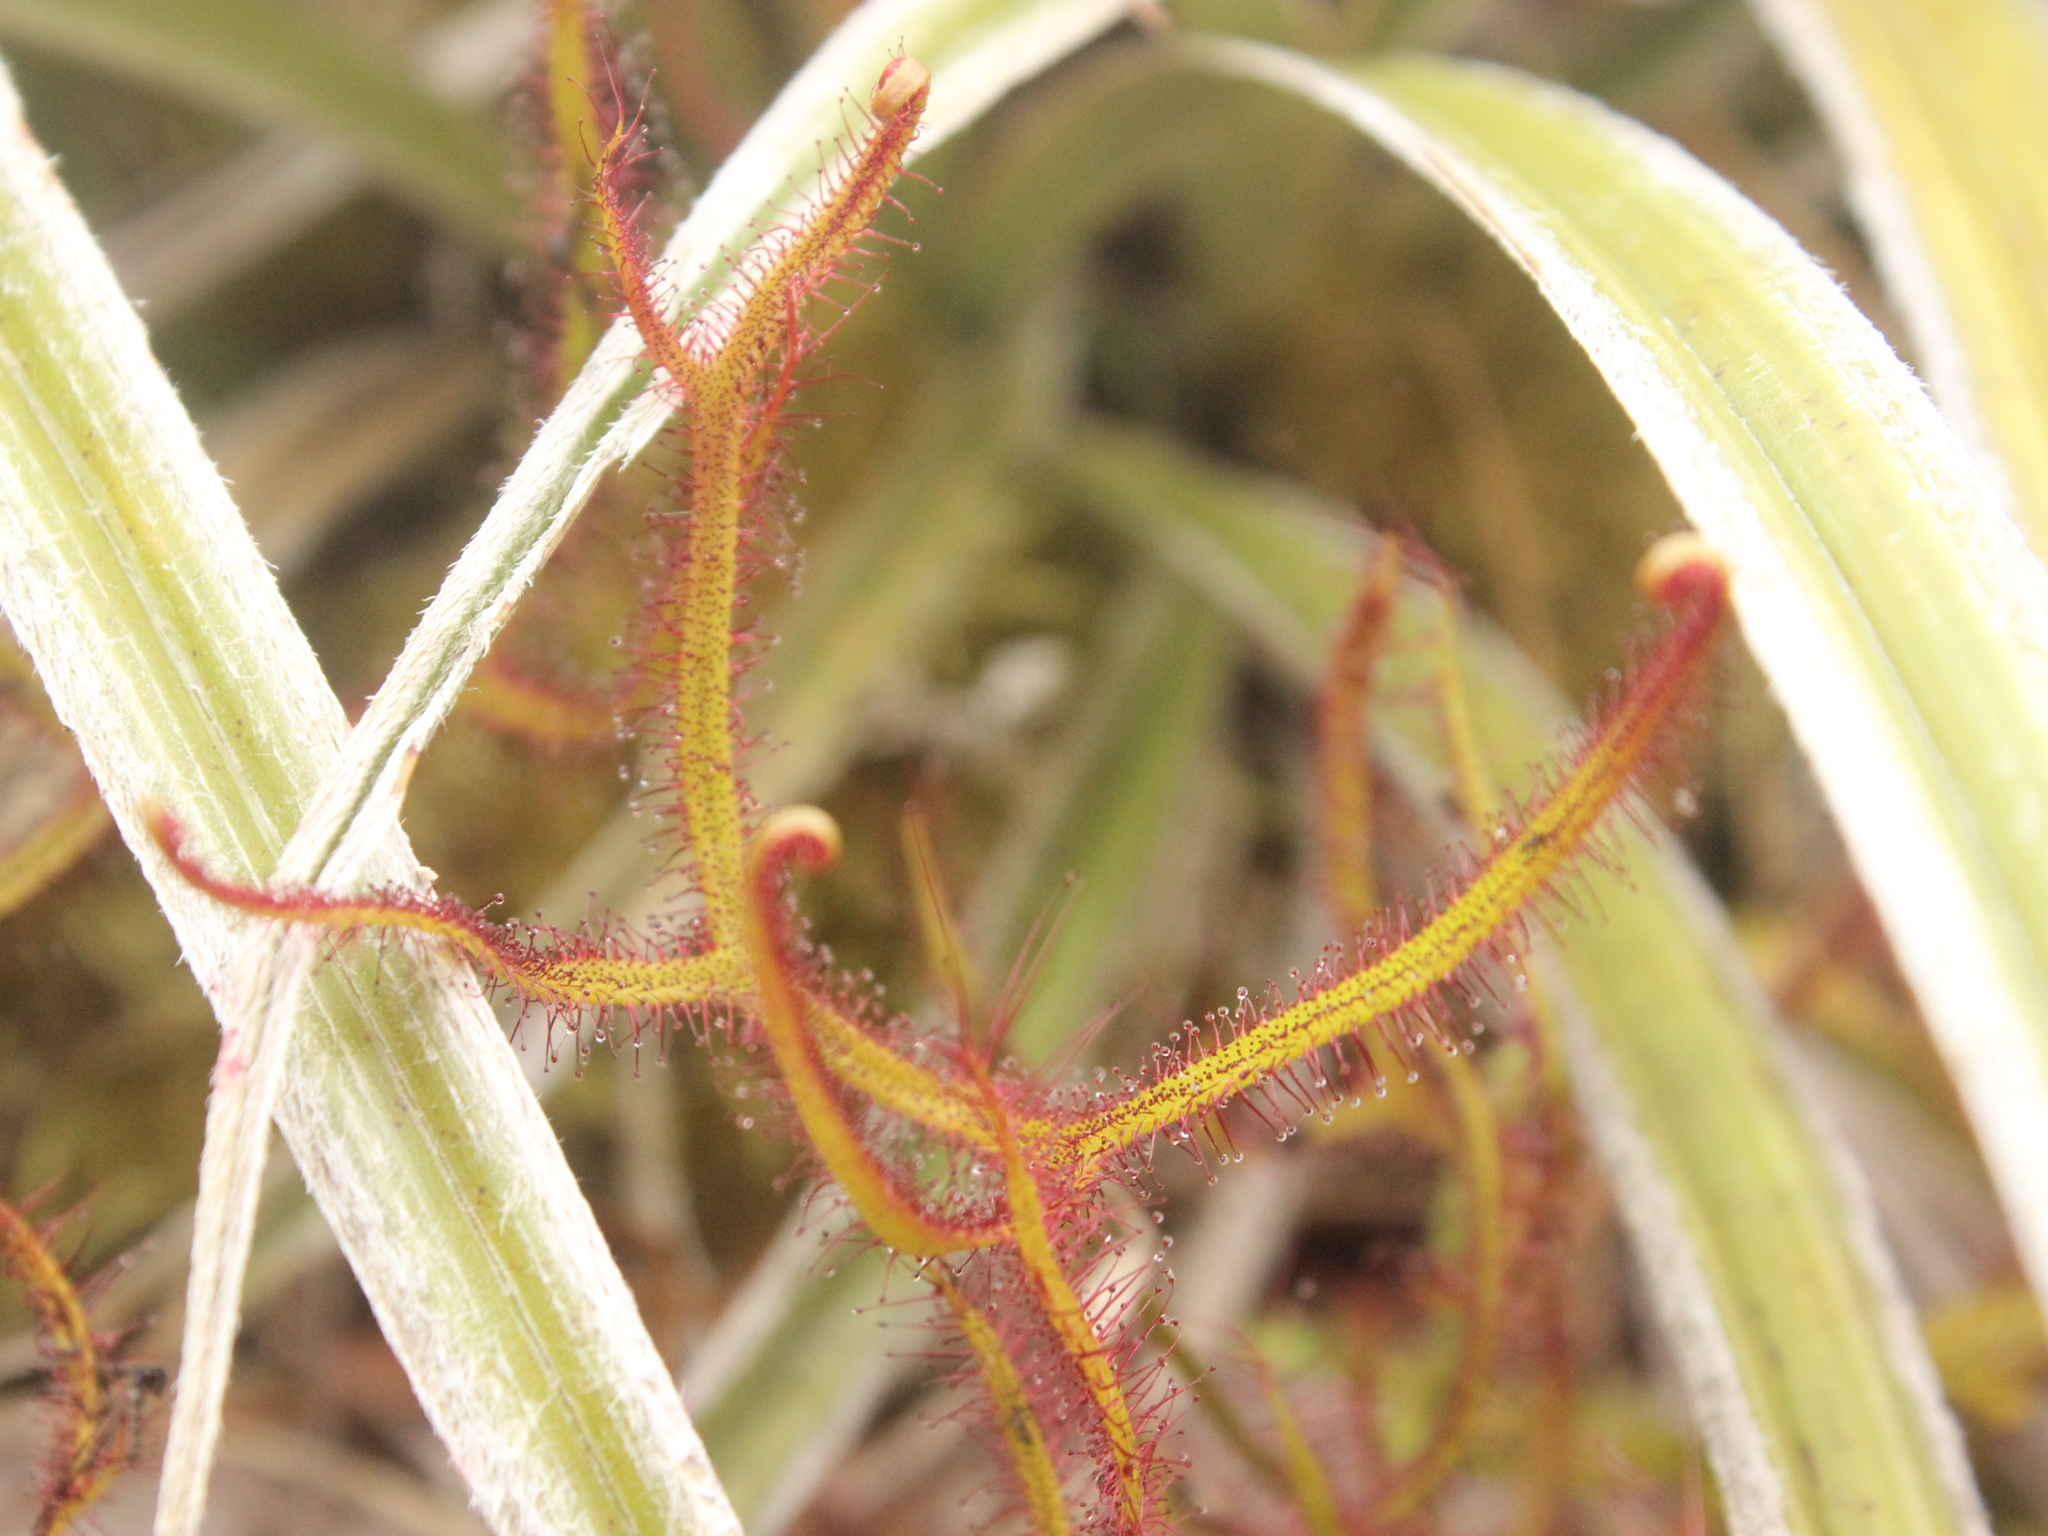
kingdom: Plantae
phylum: Tracheophyta
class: Magnoliopsida
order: Caryophyllales
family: Droseraceae
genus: Drosera
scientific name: Drosera binata
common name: Forked sundew
